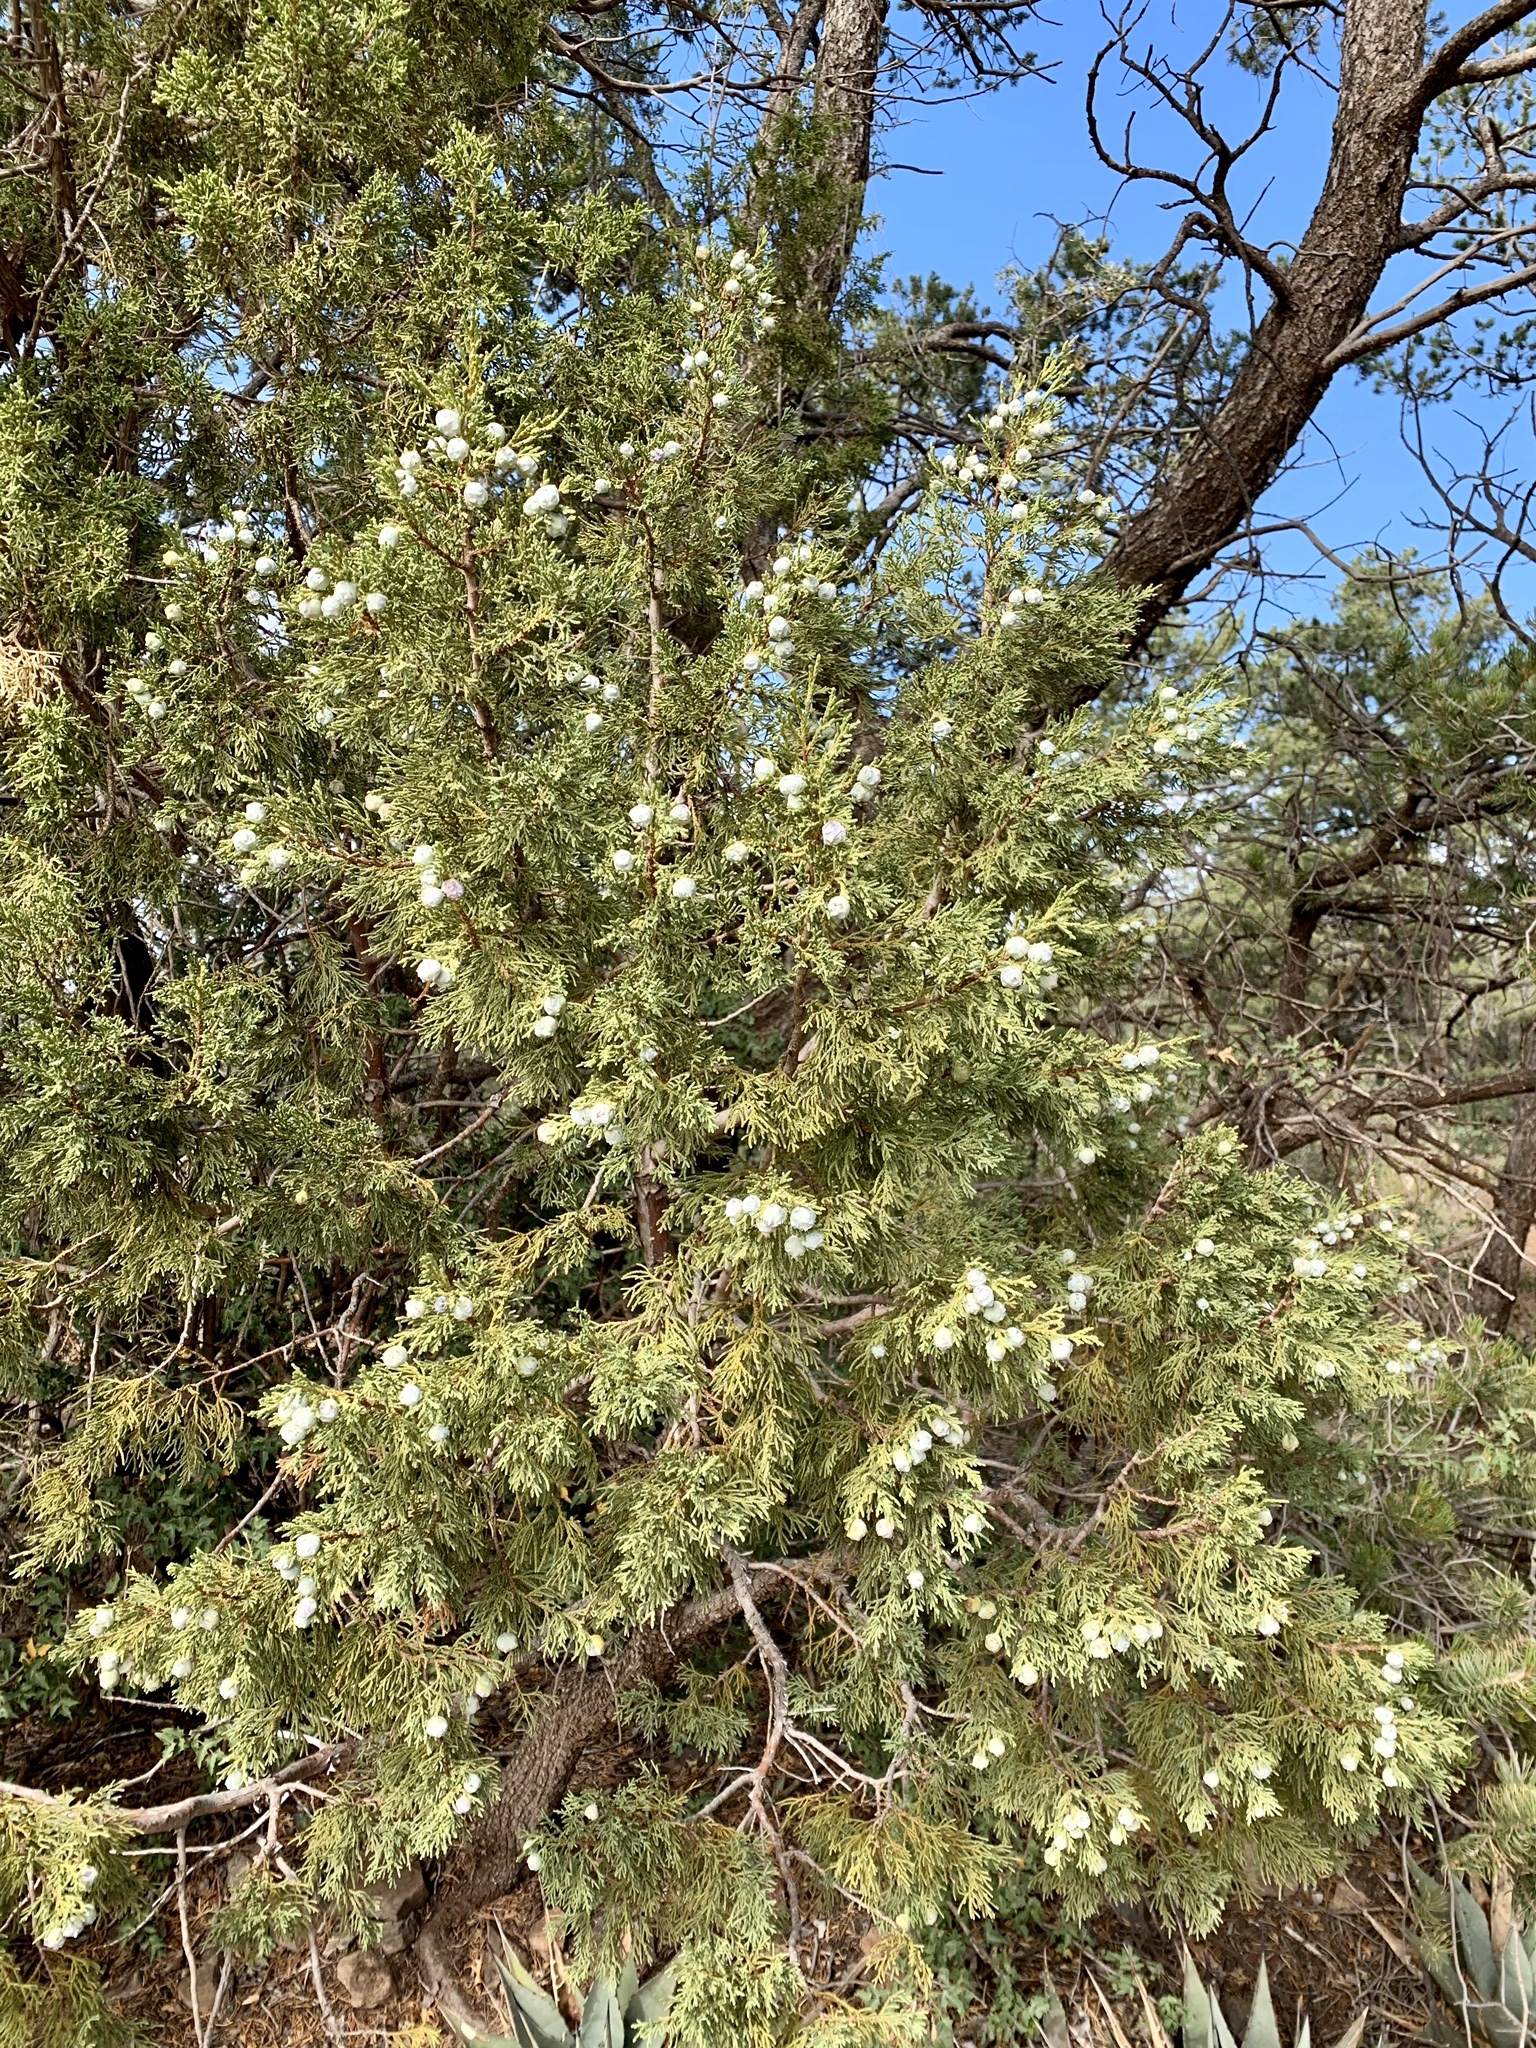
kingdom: Plantae
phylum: Tracheophyta
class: Pinopsida
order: Pinales
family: Cupressaceae
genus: Juniperus
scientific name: Juniperus deppeana
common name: Alligator juniper
